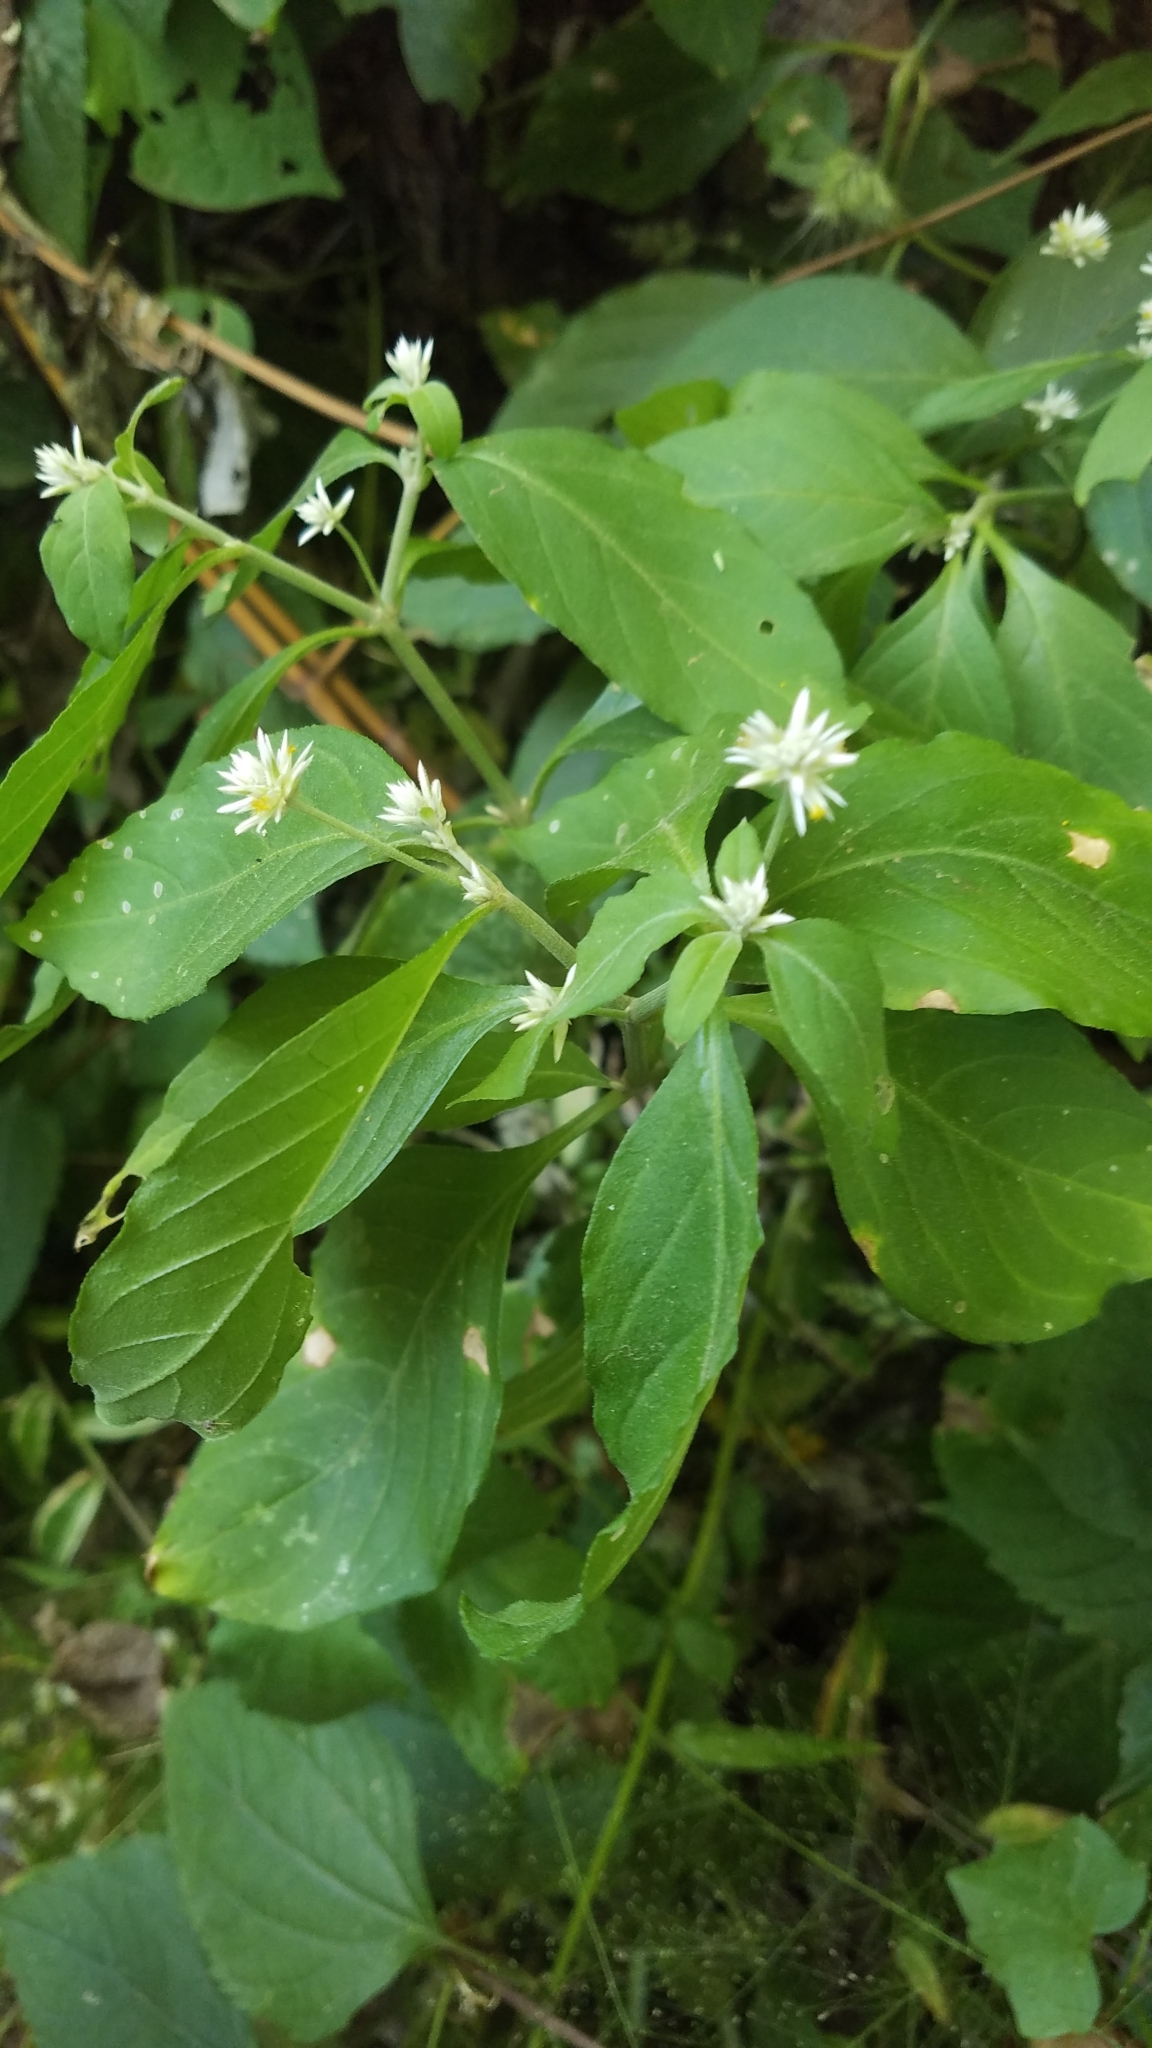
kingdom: Plantae
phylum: Tracheophyta
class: Magnoliopsida
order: Caryophyllales
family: Amaranthaceae
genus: Alternanthera
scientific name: Alternanthera pubiflora
